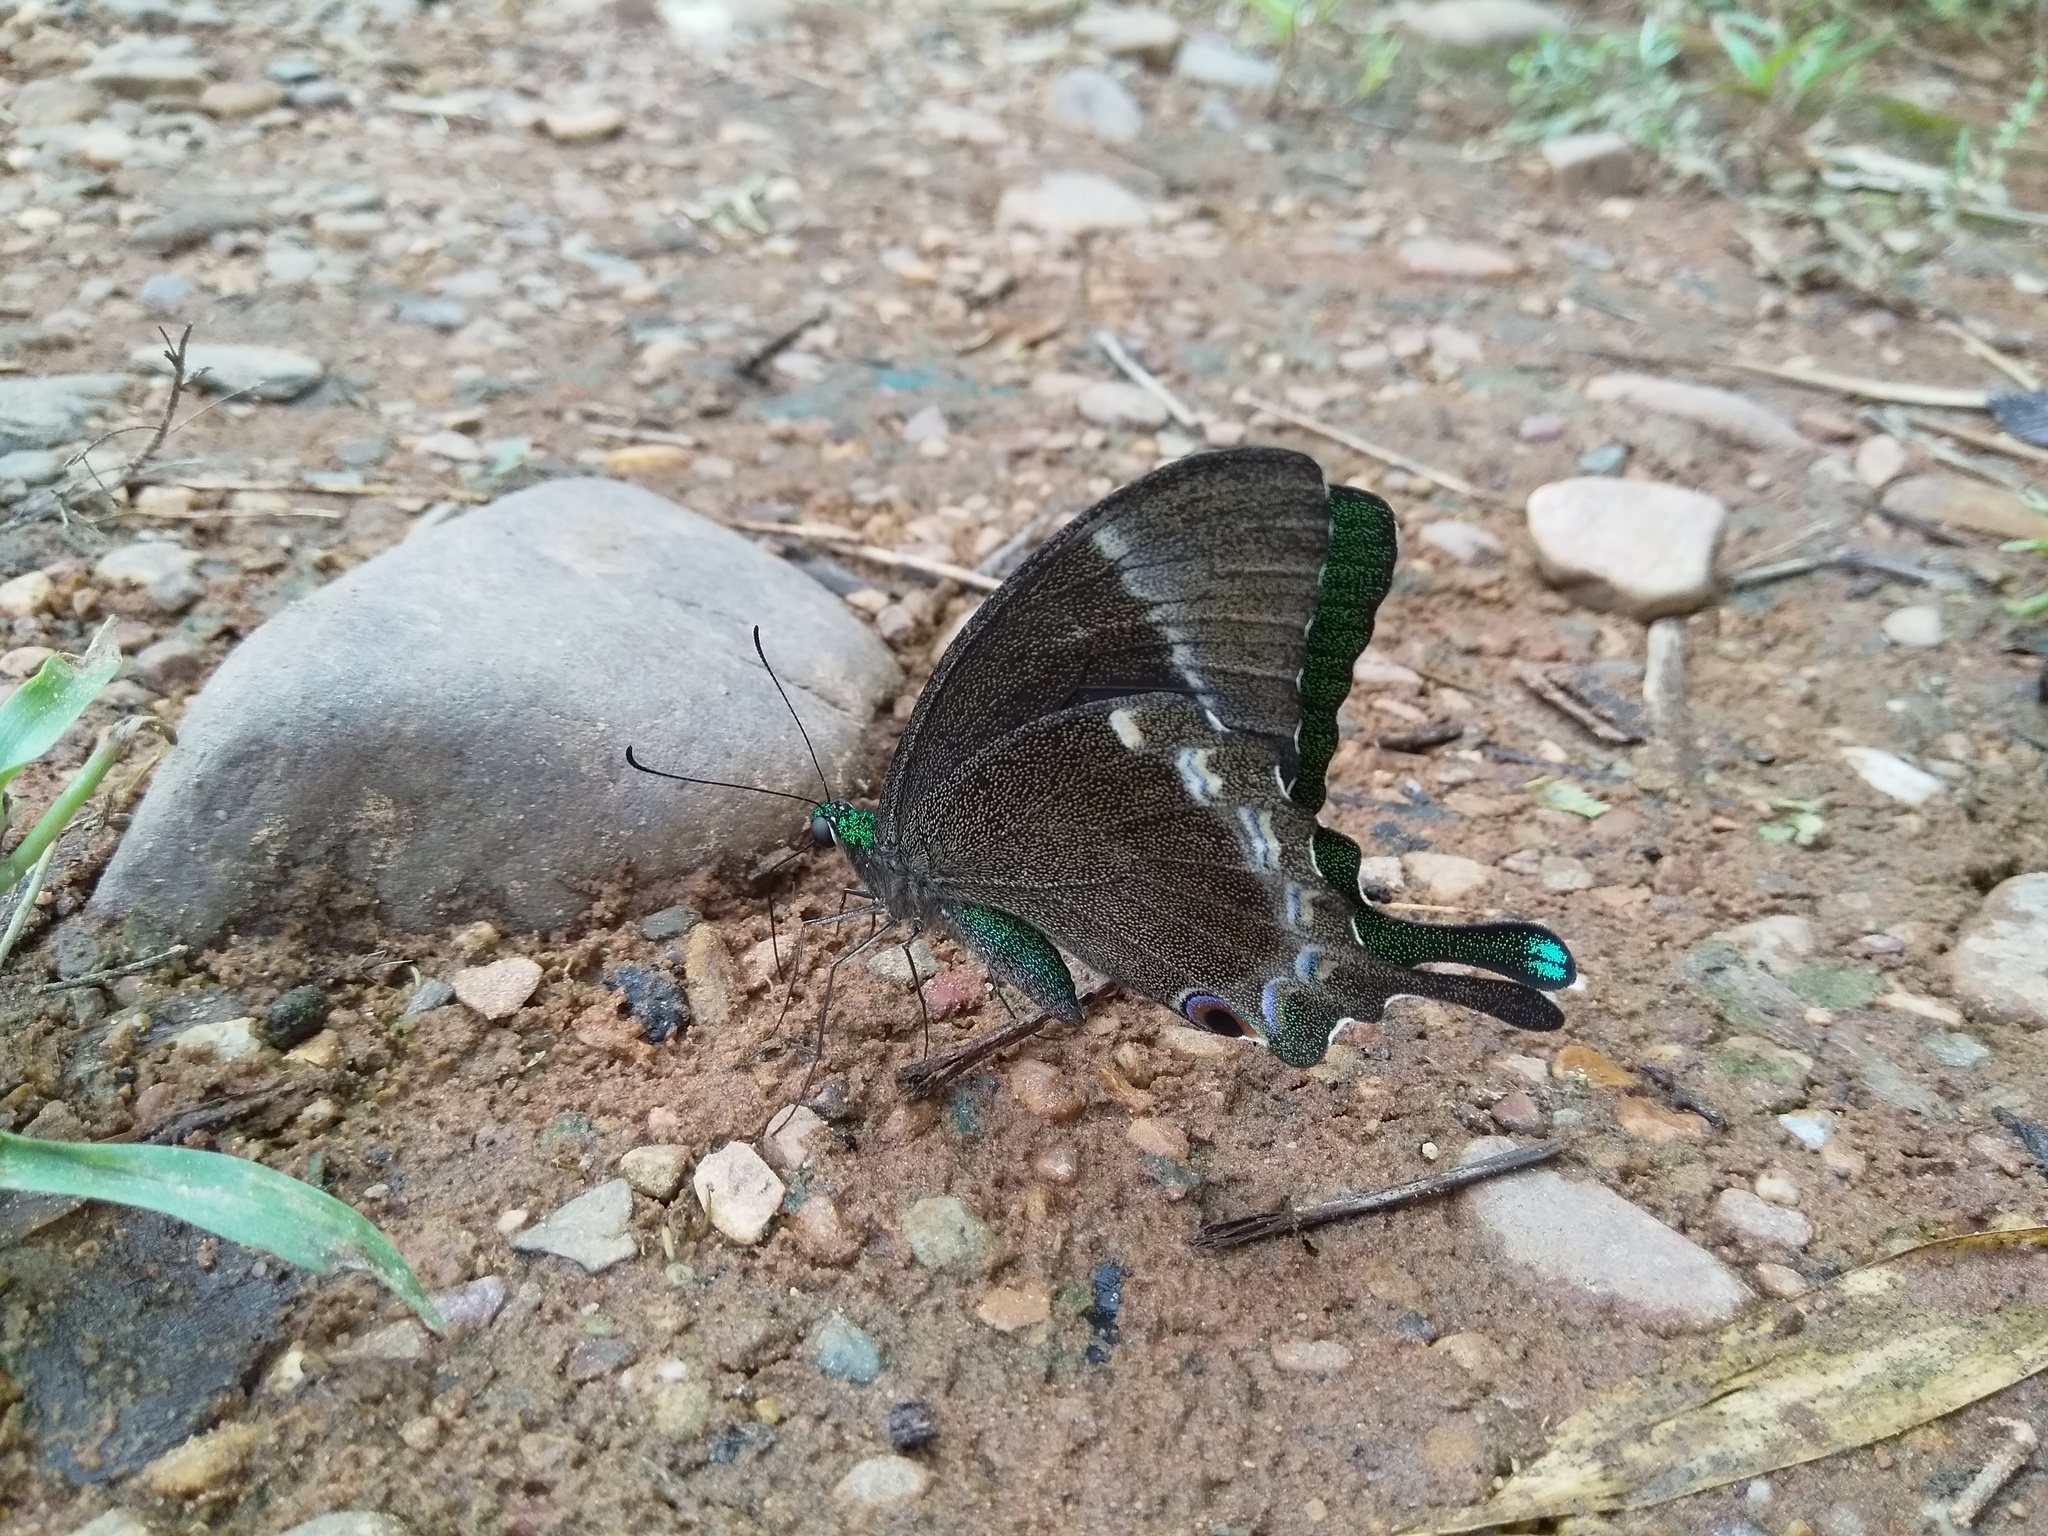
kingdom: Animalia
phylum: Arthropoda
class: Insecta
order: Lepidoptera
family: Papilionidae
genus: Papilio
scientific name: Papilio crino
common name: Common banded peacock
